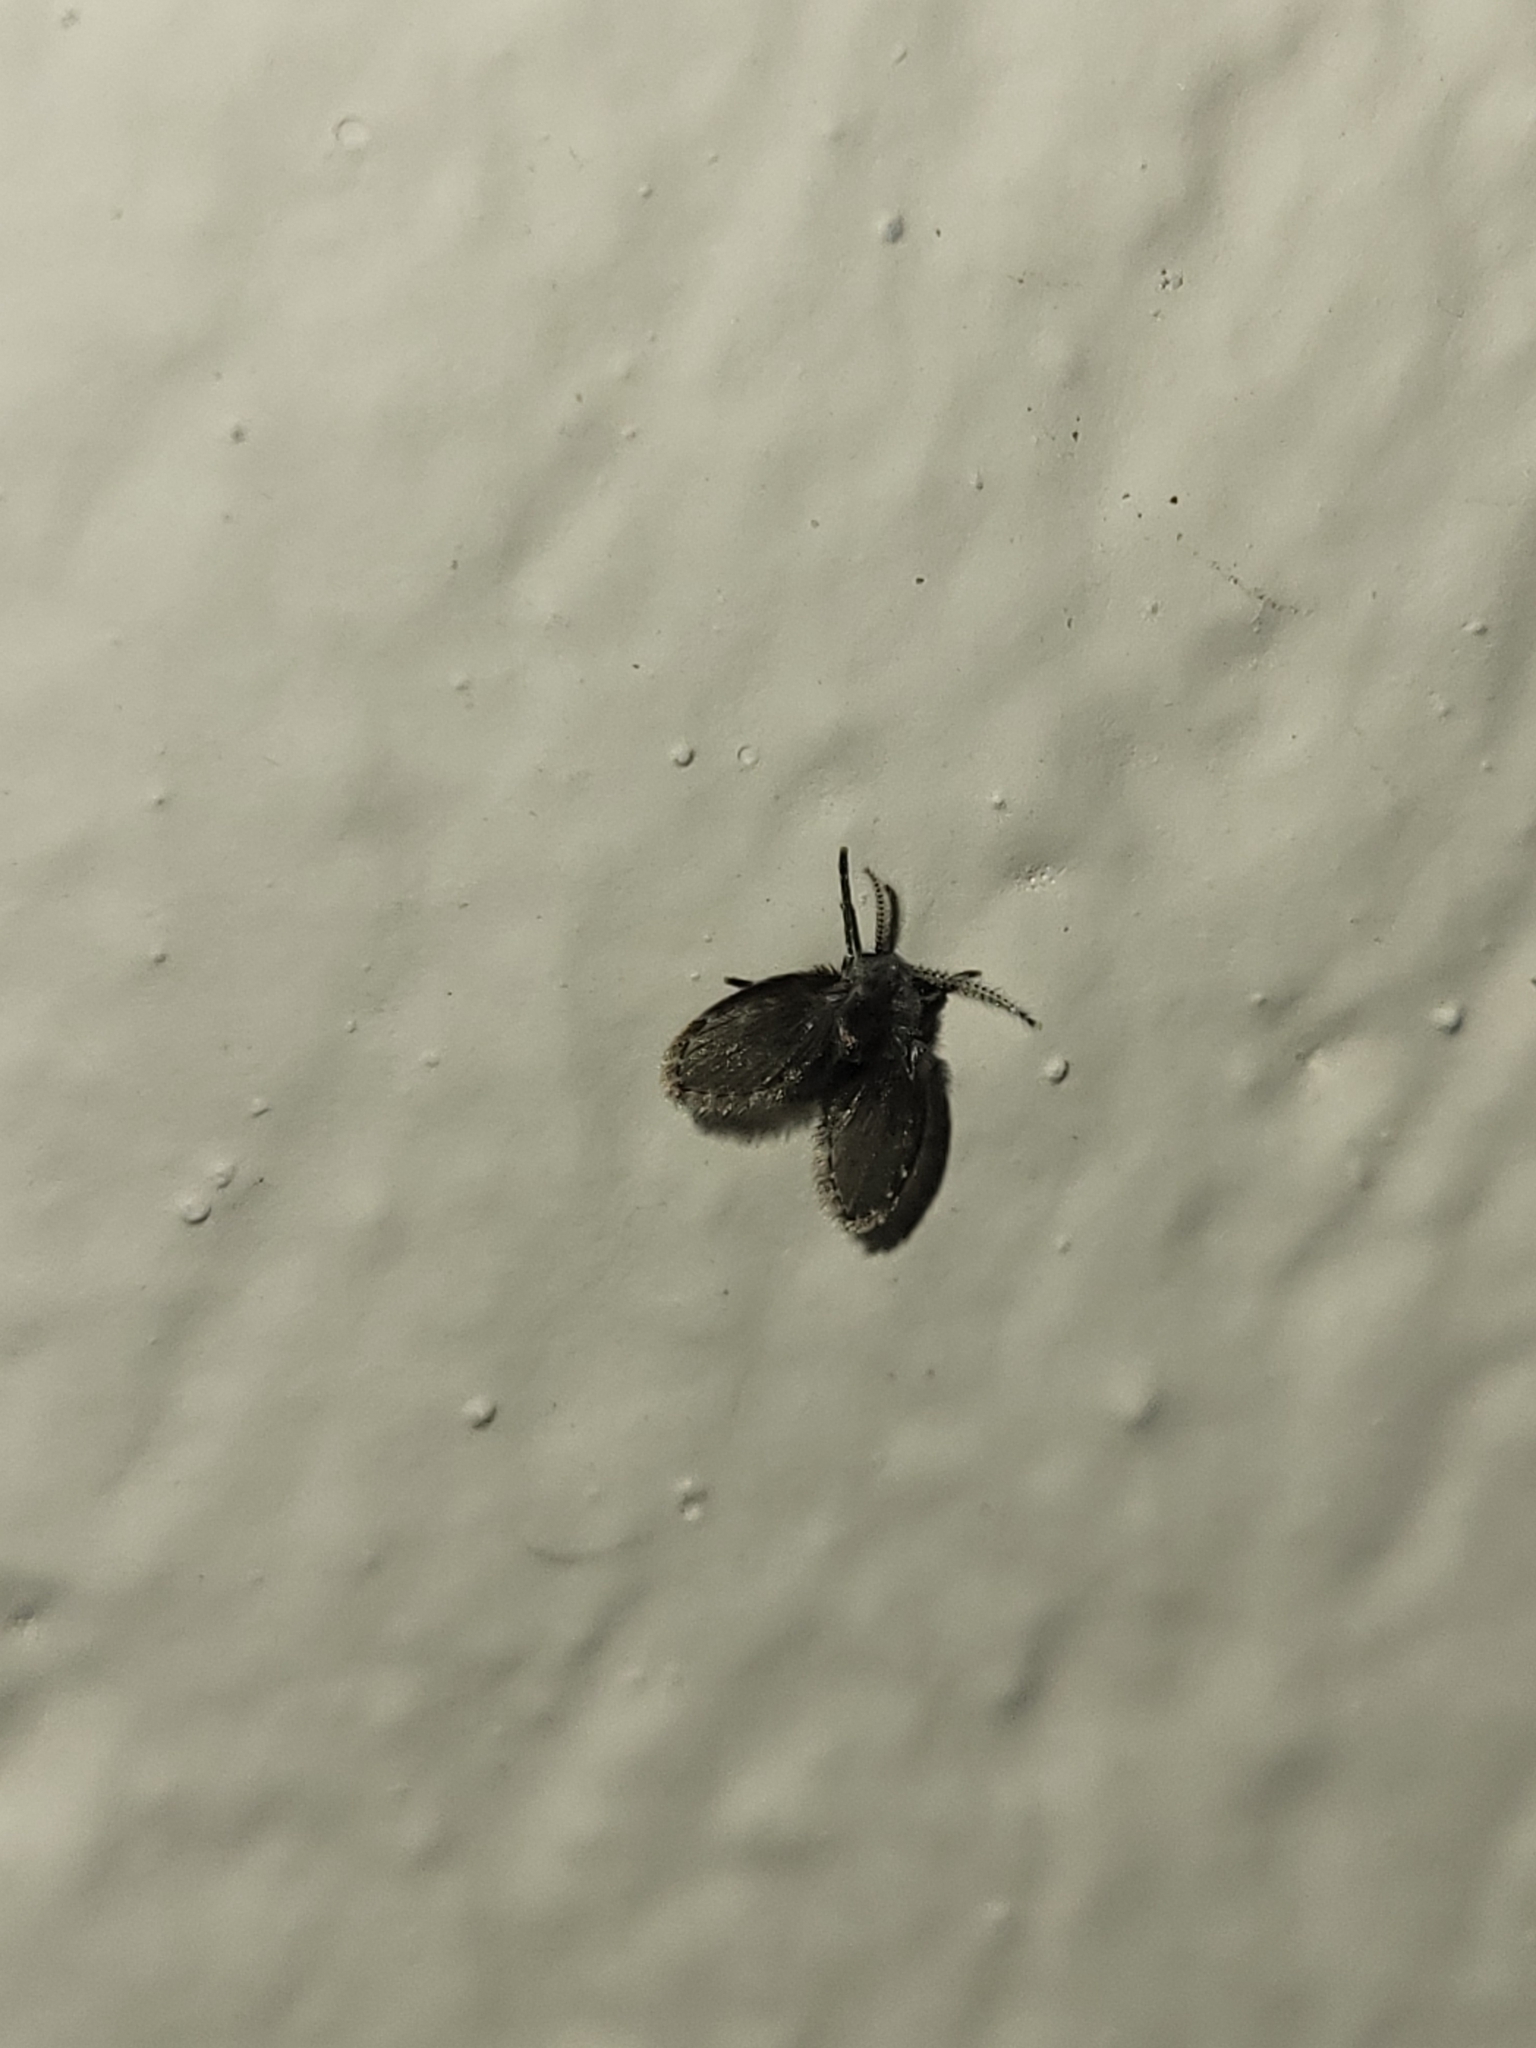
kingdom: Animalia
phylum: Arthropoda
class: Insecta
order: Diptera
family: Psychodidae
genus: Clogmia
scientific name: Clogmia albipunctatus
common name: White-spotted moth fly
